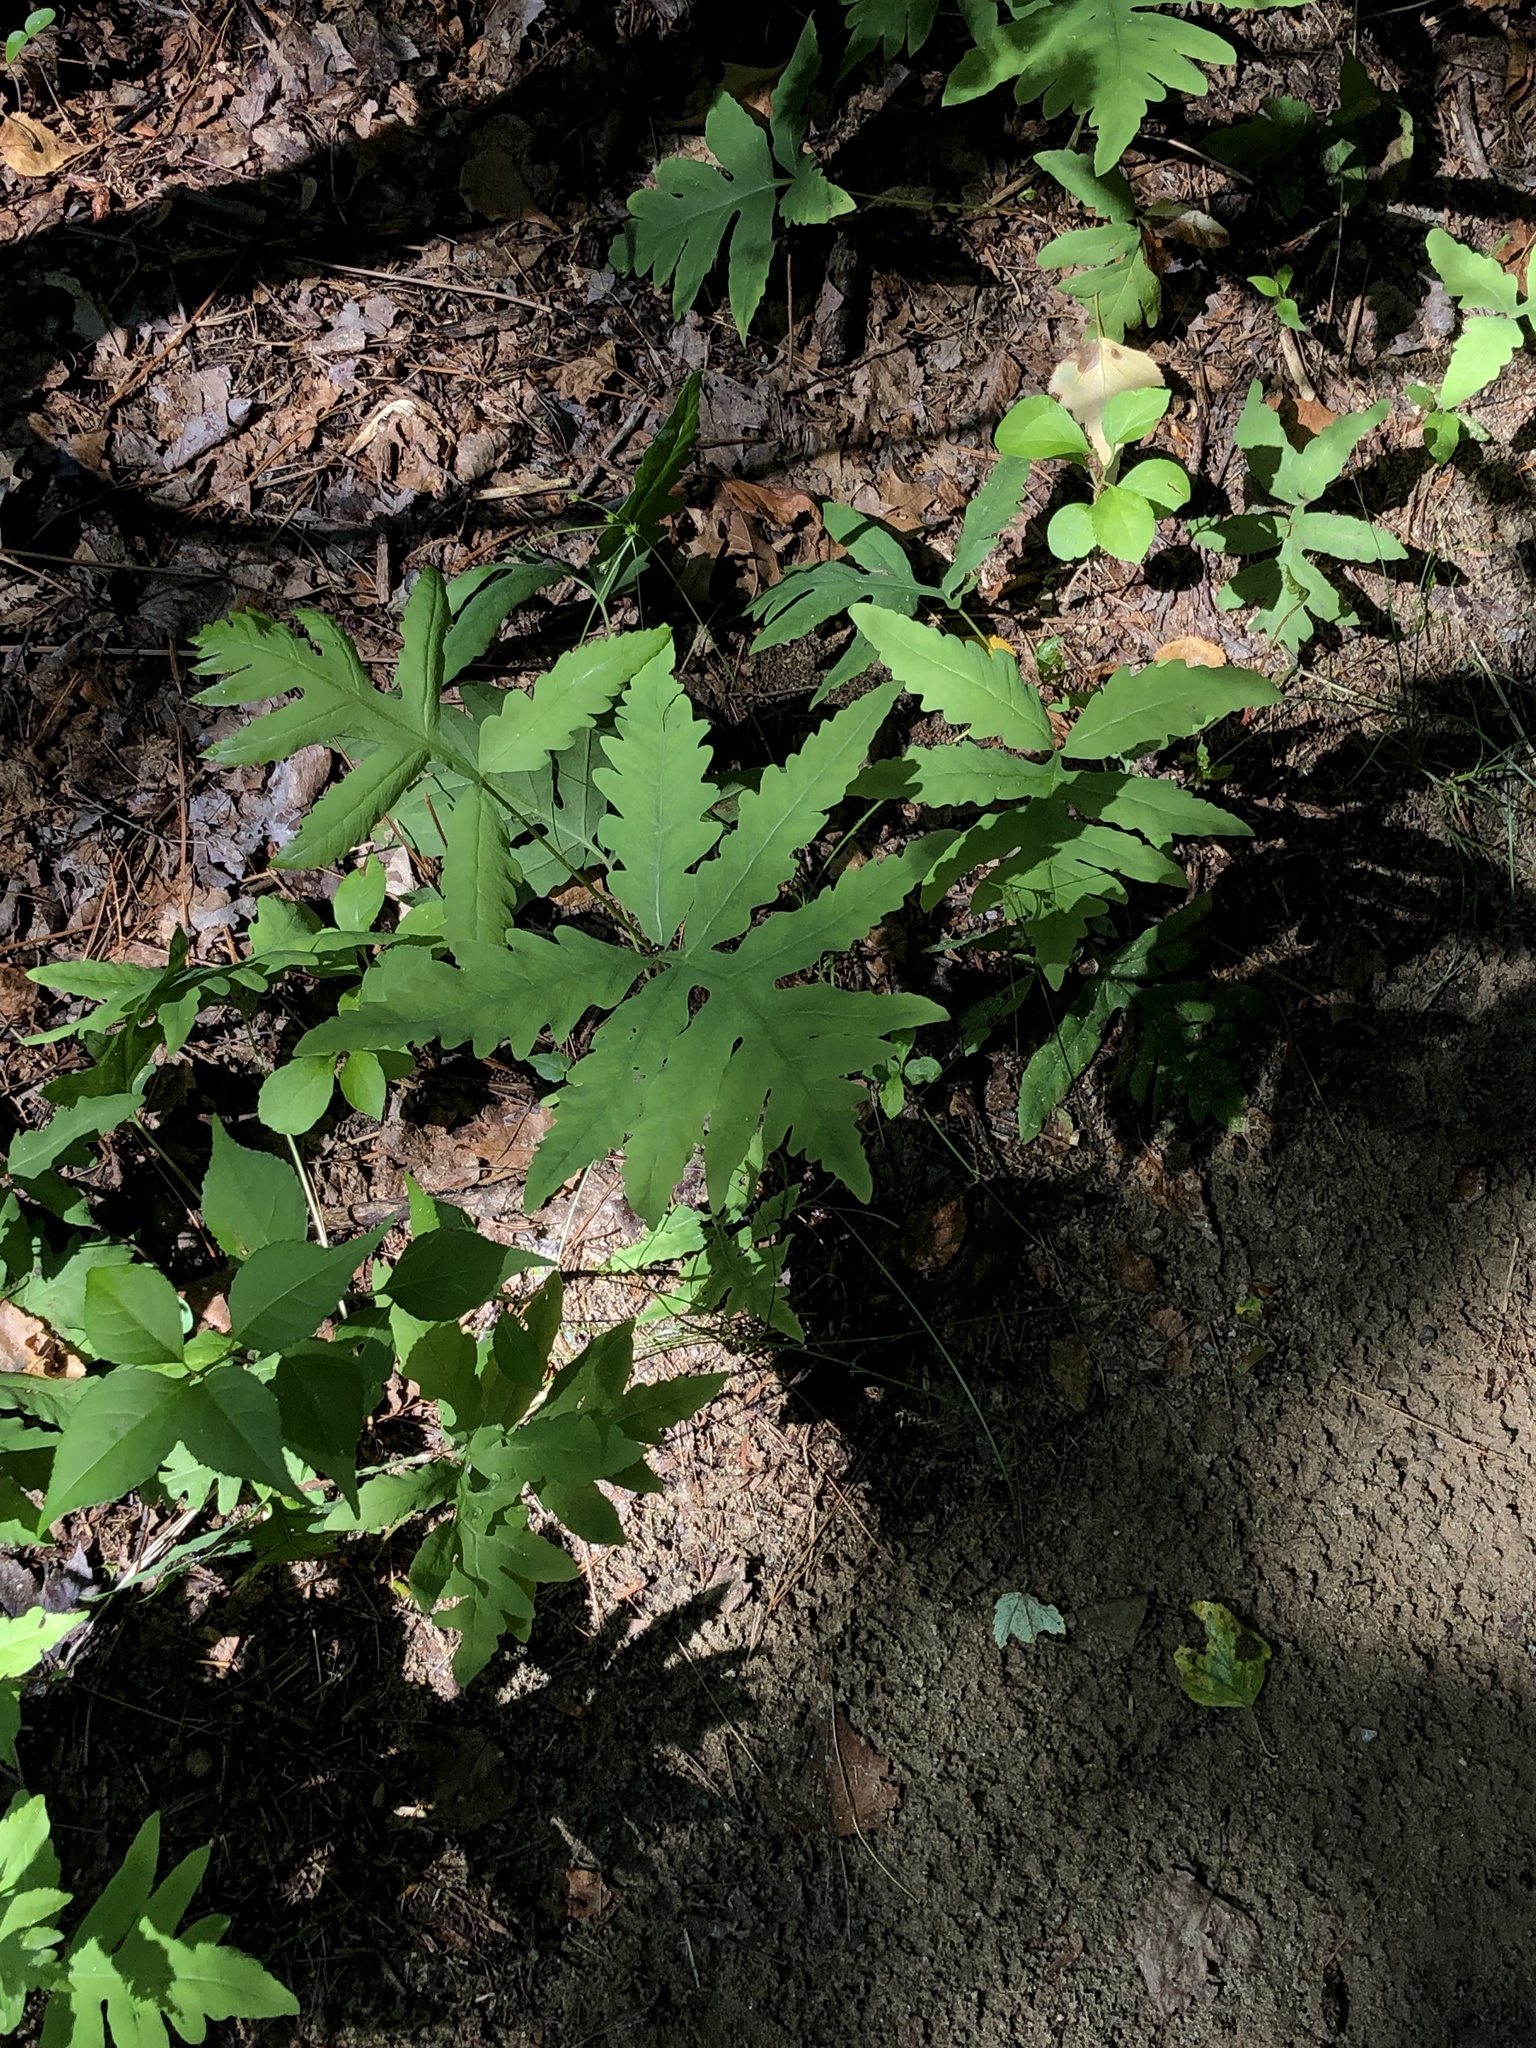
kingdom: Plantae
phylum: Tracheophyta
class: Polypodiopsida
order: Polypodiales
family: Onocleaceae
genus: Onoclea
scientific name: Onoclea sensibilis
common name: Sensitive fern
